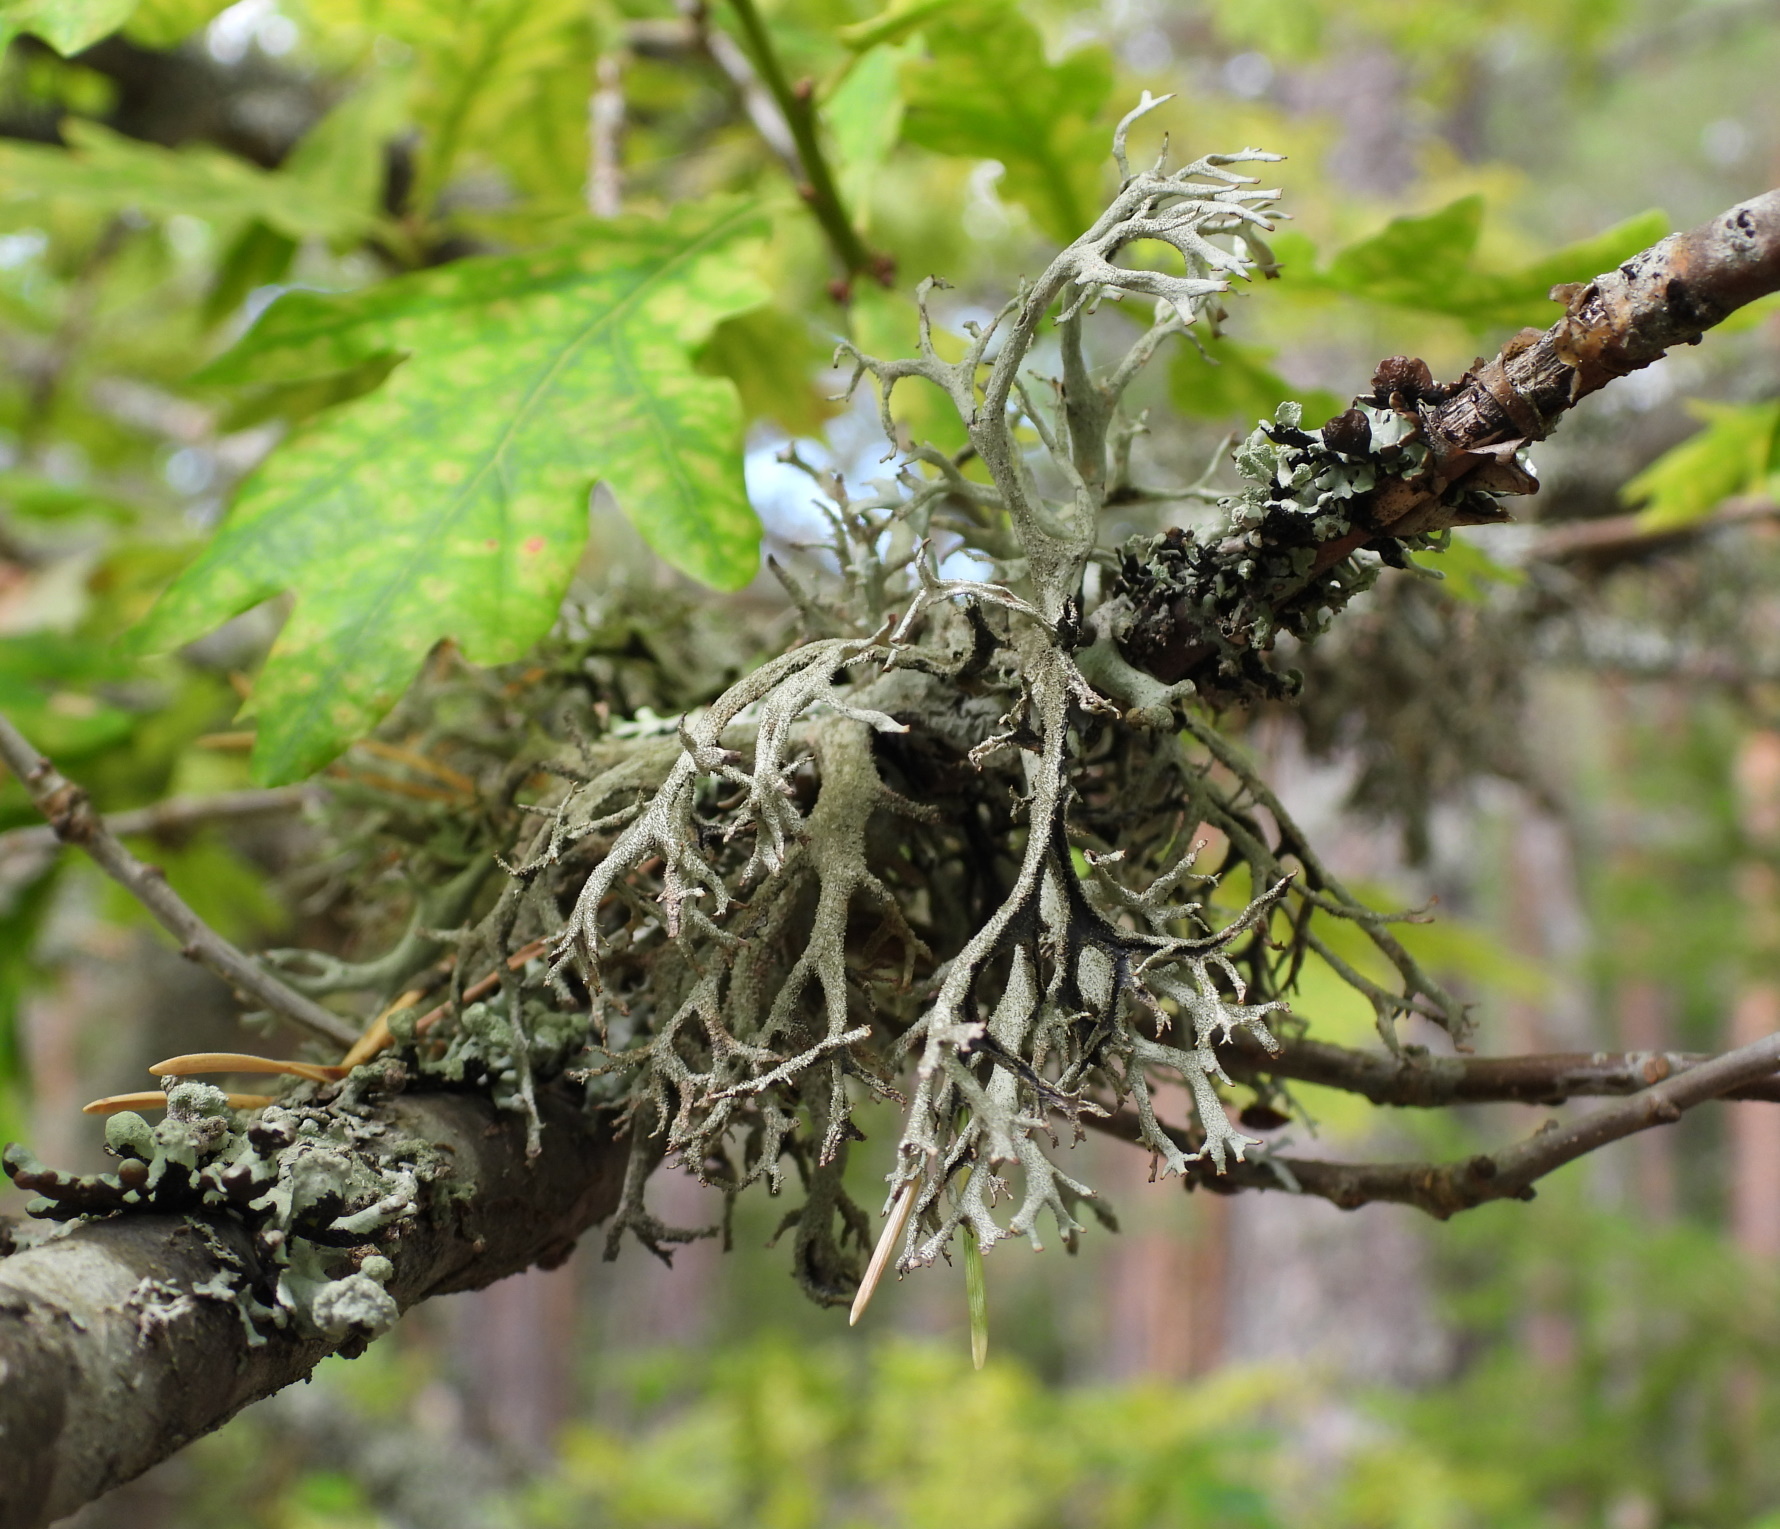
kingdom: Fungi
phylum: Ascomycota
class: Lecanoromycetes
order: Lecanorales
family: Parmeliaceae
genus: Pseudevernia
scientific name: Pseudevernia furfuracea
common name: Tree moss
